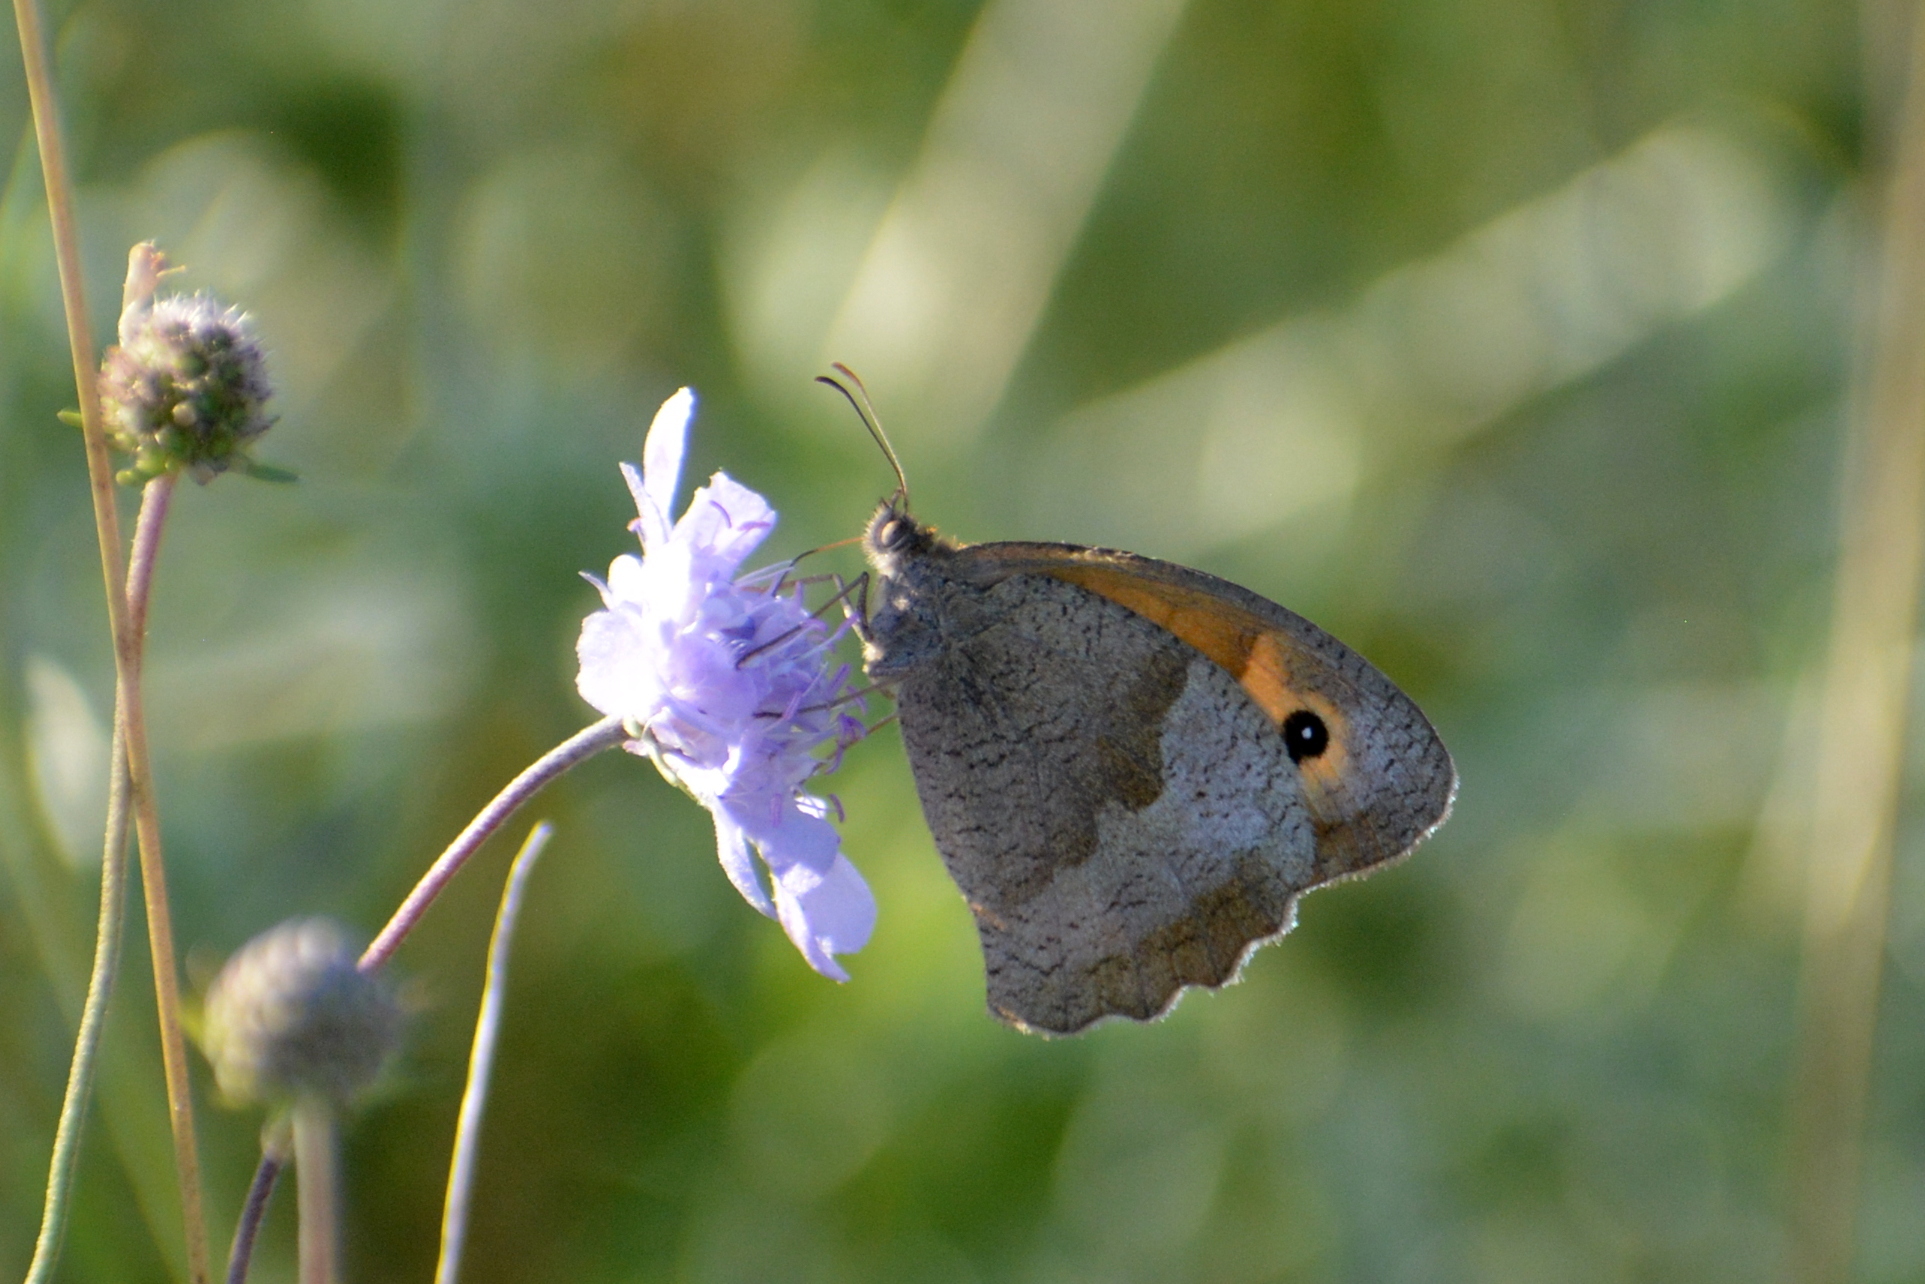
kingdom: Animalia
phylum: Arthropoda
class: Insecta
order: Lepidoptera
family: Nymphalidae
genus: Maniola
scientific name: Maniola jurtina
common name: Meadow brown
